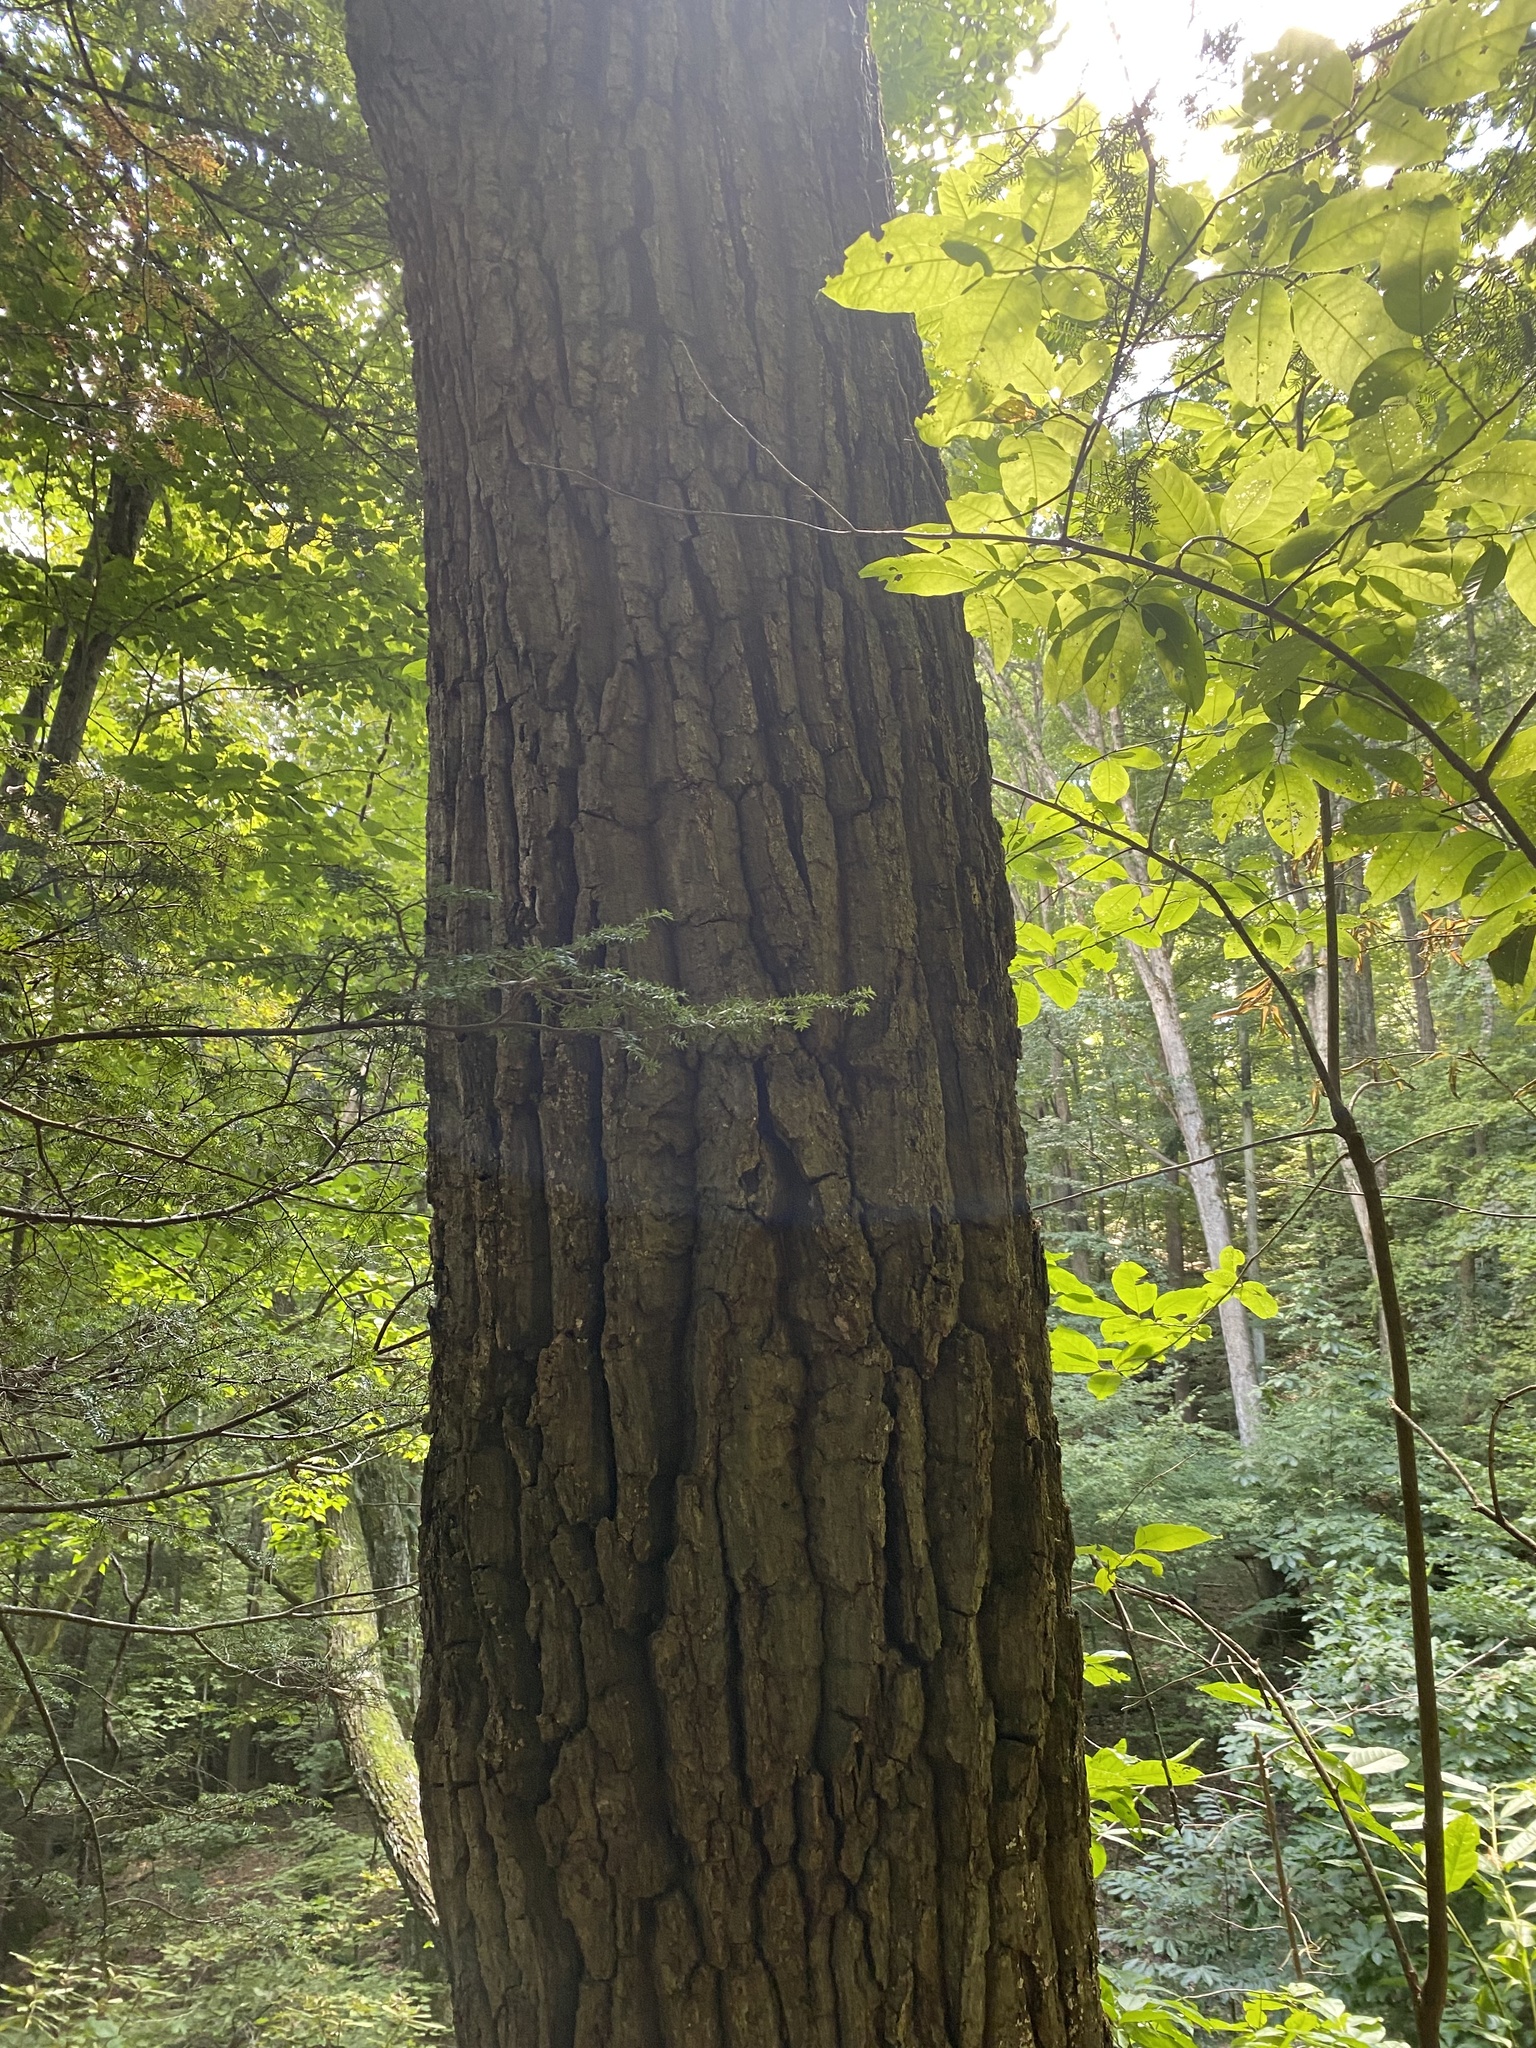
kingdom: Plantae
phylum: Tracheophyta
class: Magnoliopsida
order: Fagales
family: Fagaceae
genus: Quercus
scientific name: Quercus montana
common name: Chestnut oak
